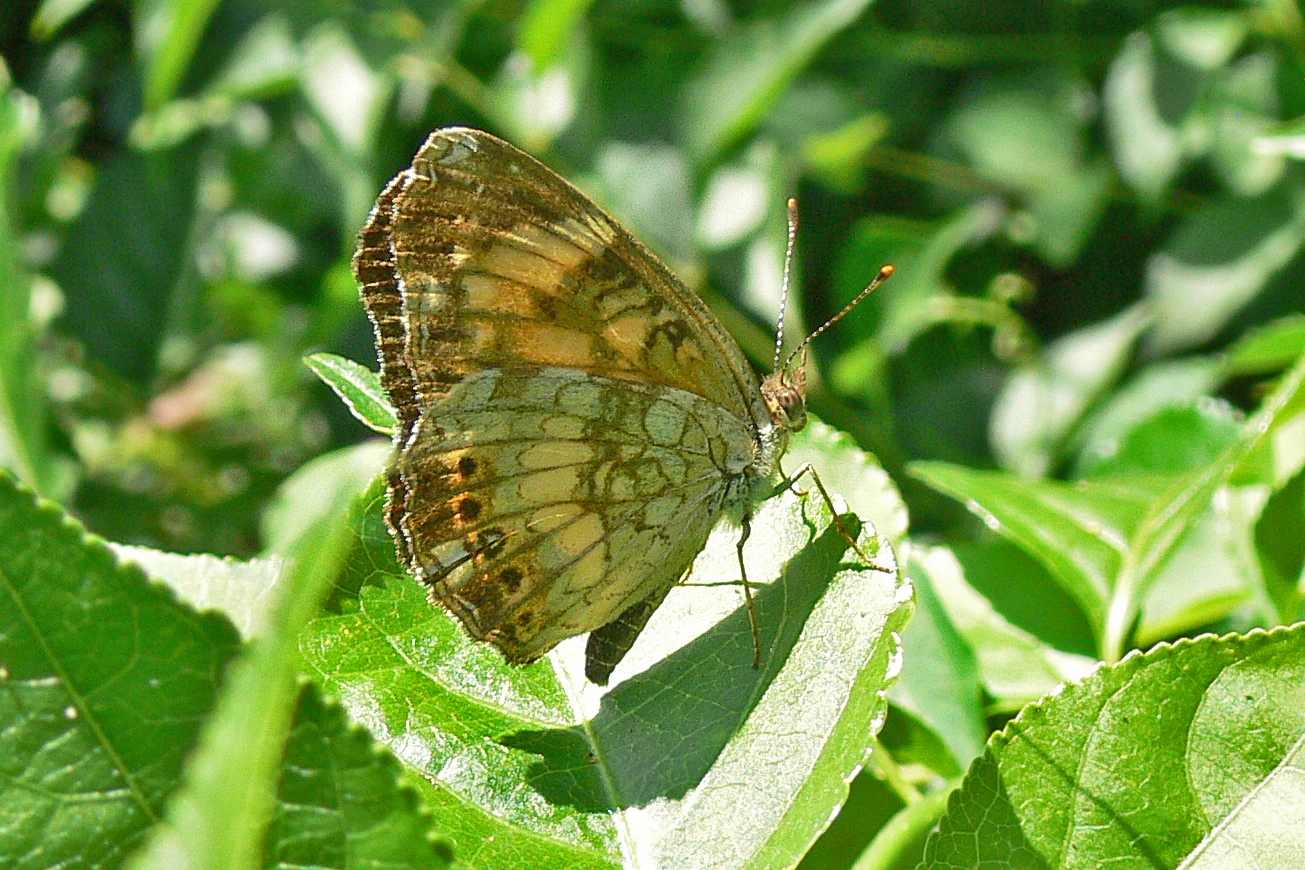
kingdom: Animalia
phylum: Arthropoda
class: Insecta
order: Lepidoptera
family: Nymphalidae
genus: Chlosyne
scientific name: Chlosyne nycteis
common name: Silvery checkerspot
